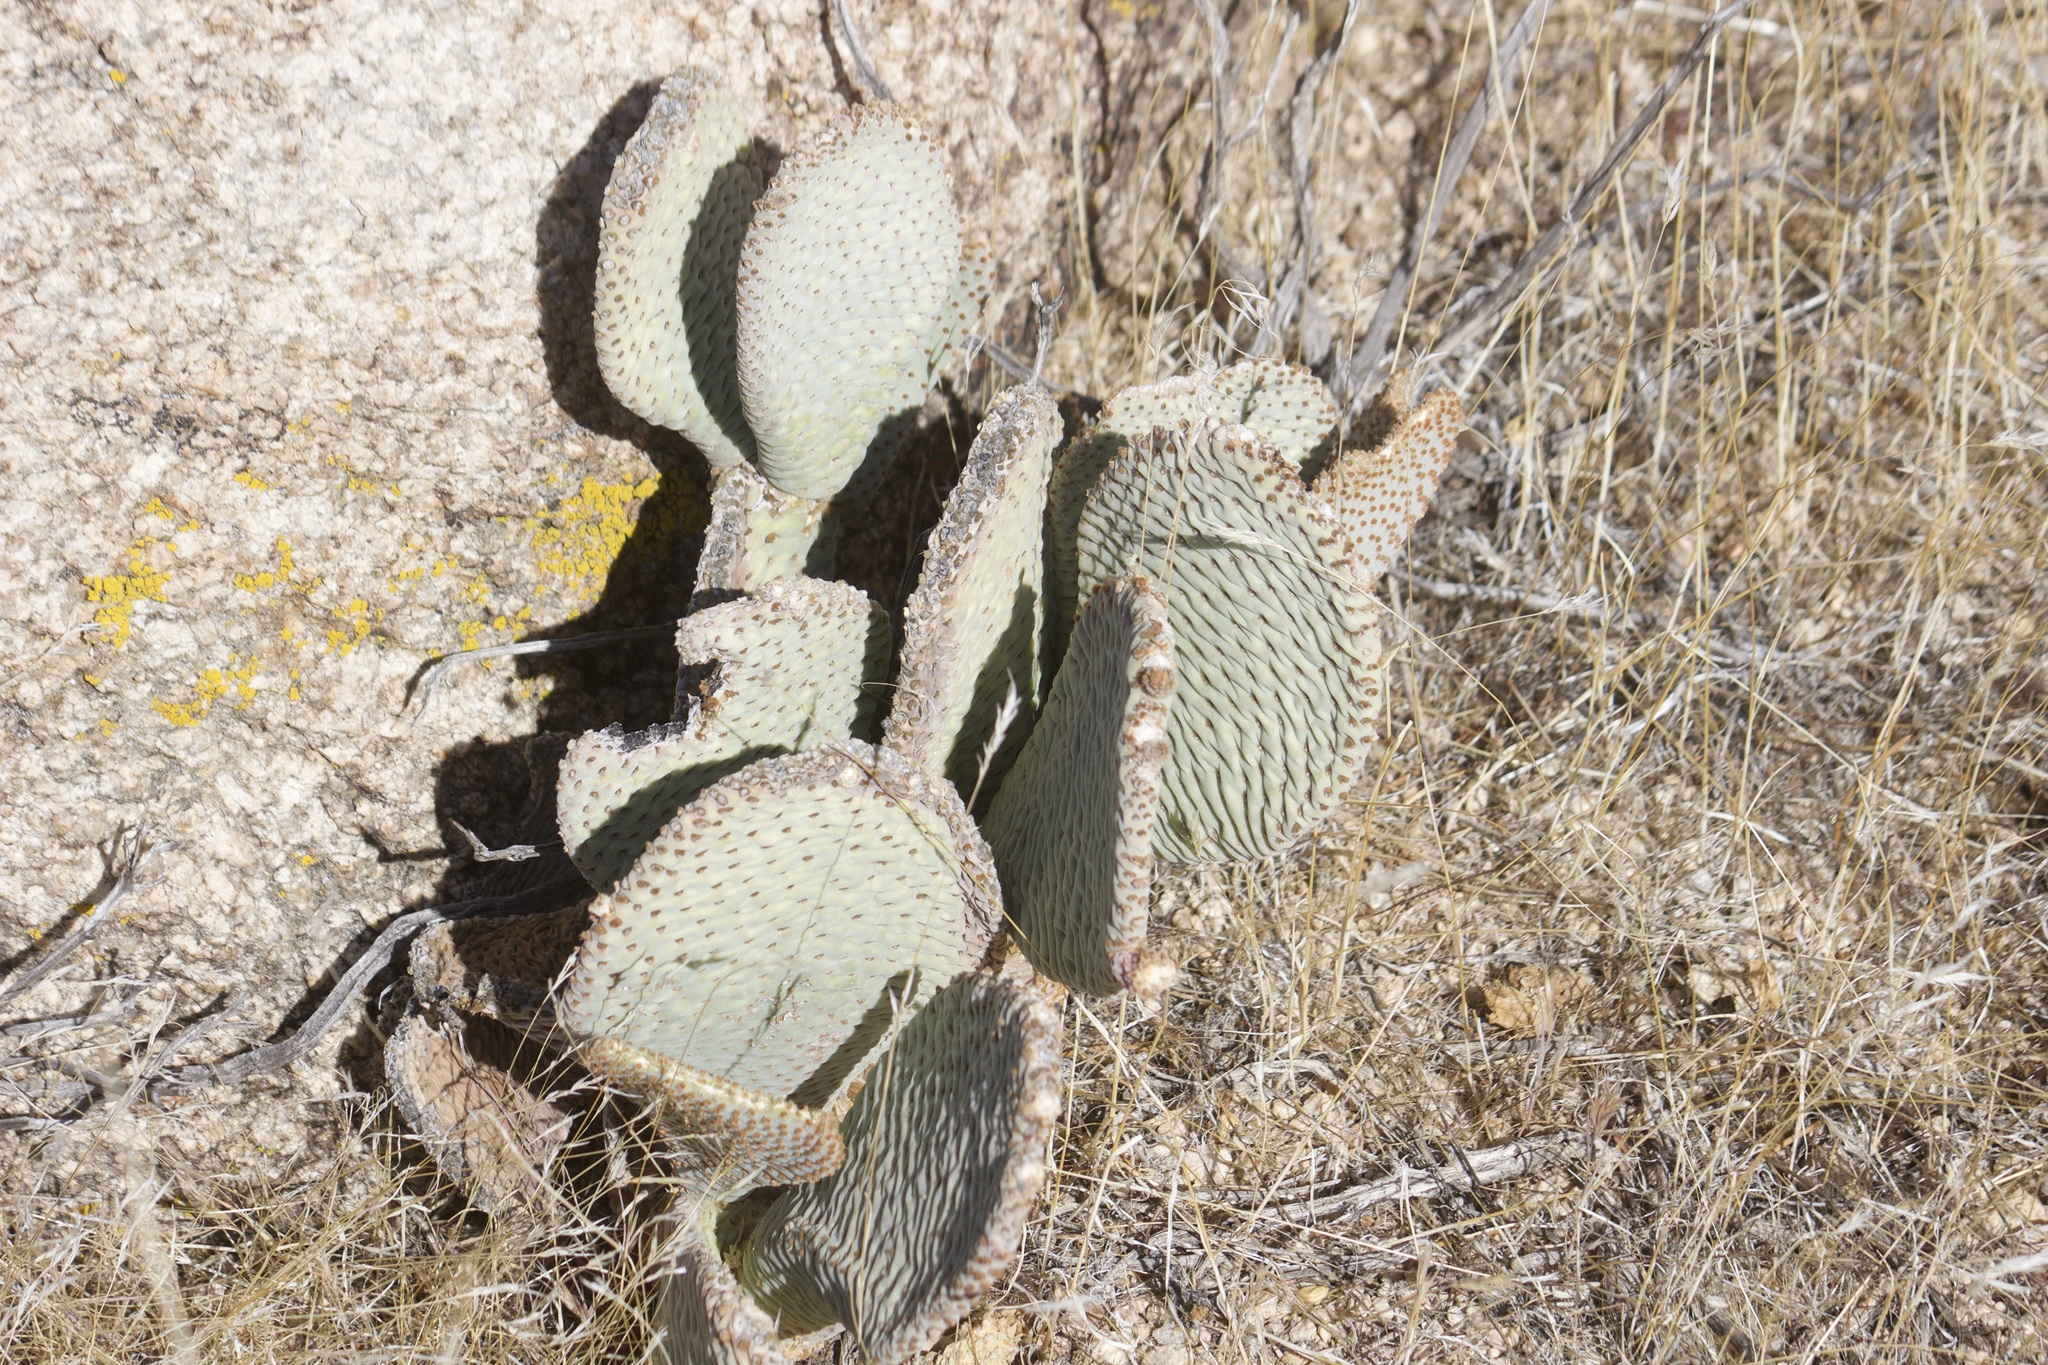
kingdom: Plantae
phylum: Tracheophyta
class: Magnoliopsida
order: Caryophyllales
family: Cactaceae
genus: Opuntia
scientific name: Opuntia basilaris
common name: Beavertail prickly-pear
